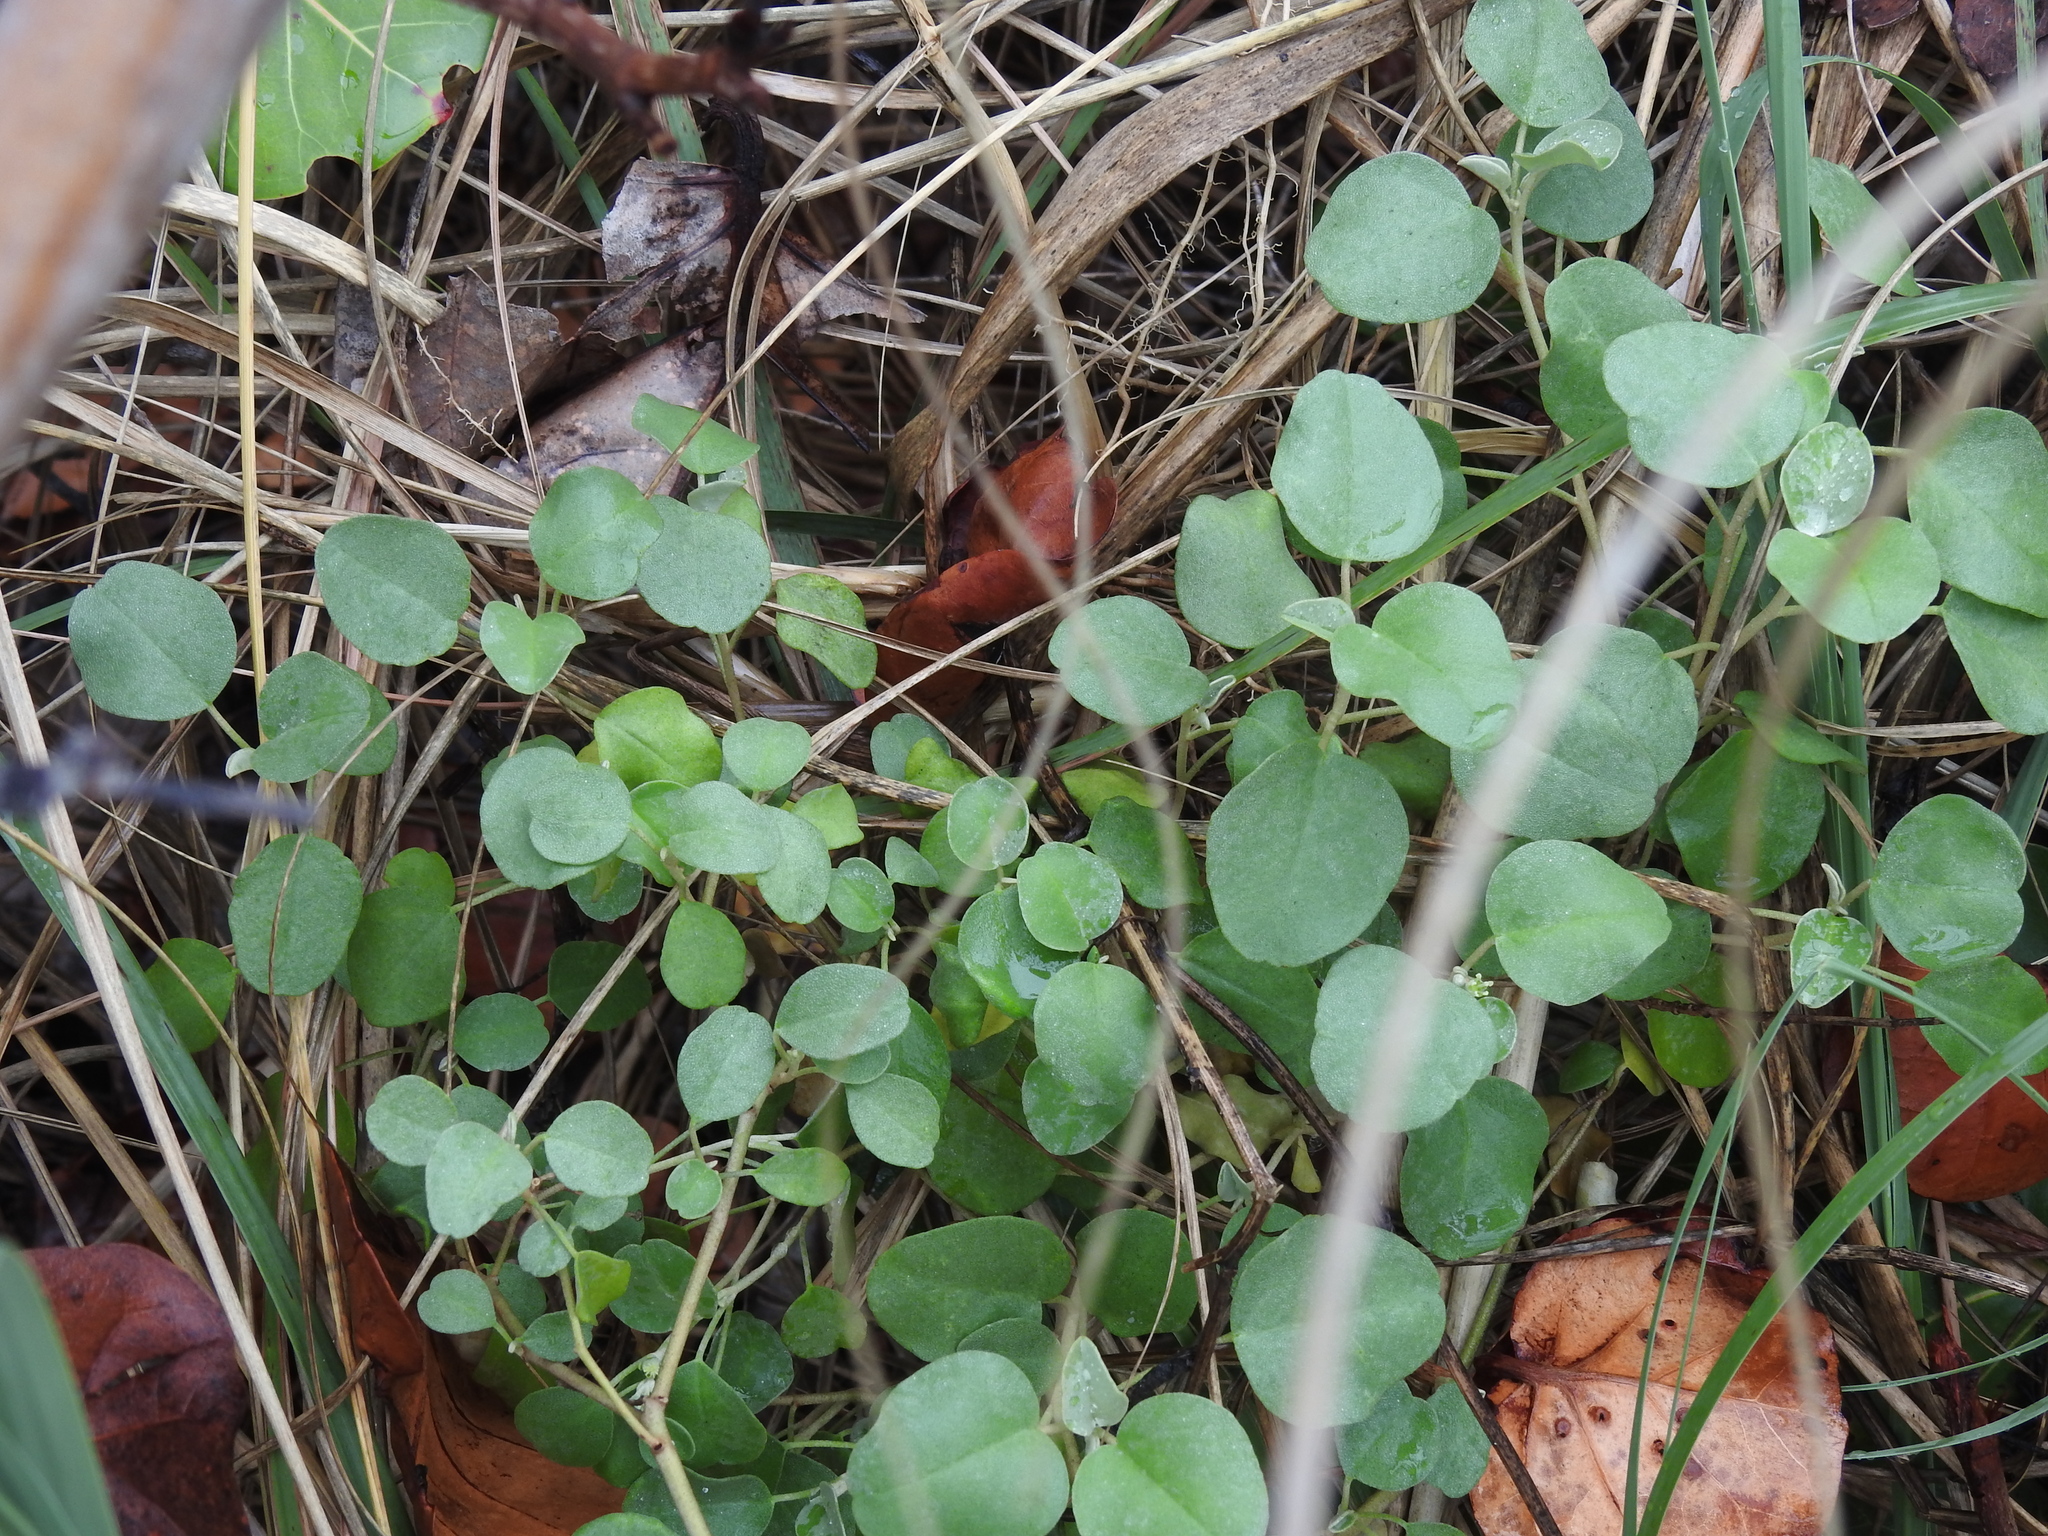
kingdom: Plantae
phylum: Tracheophyta
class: Magnoliopsida
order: Malpighiales
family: Euphorbiaceae
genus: Croton
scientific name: Croton punctatus
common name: Beach-tea
